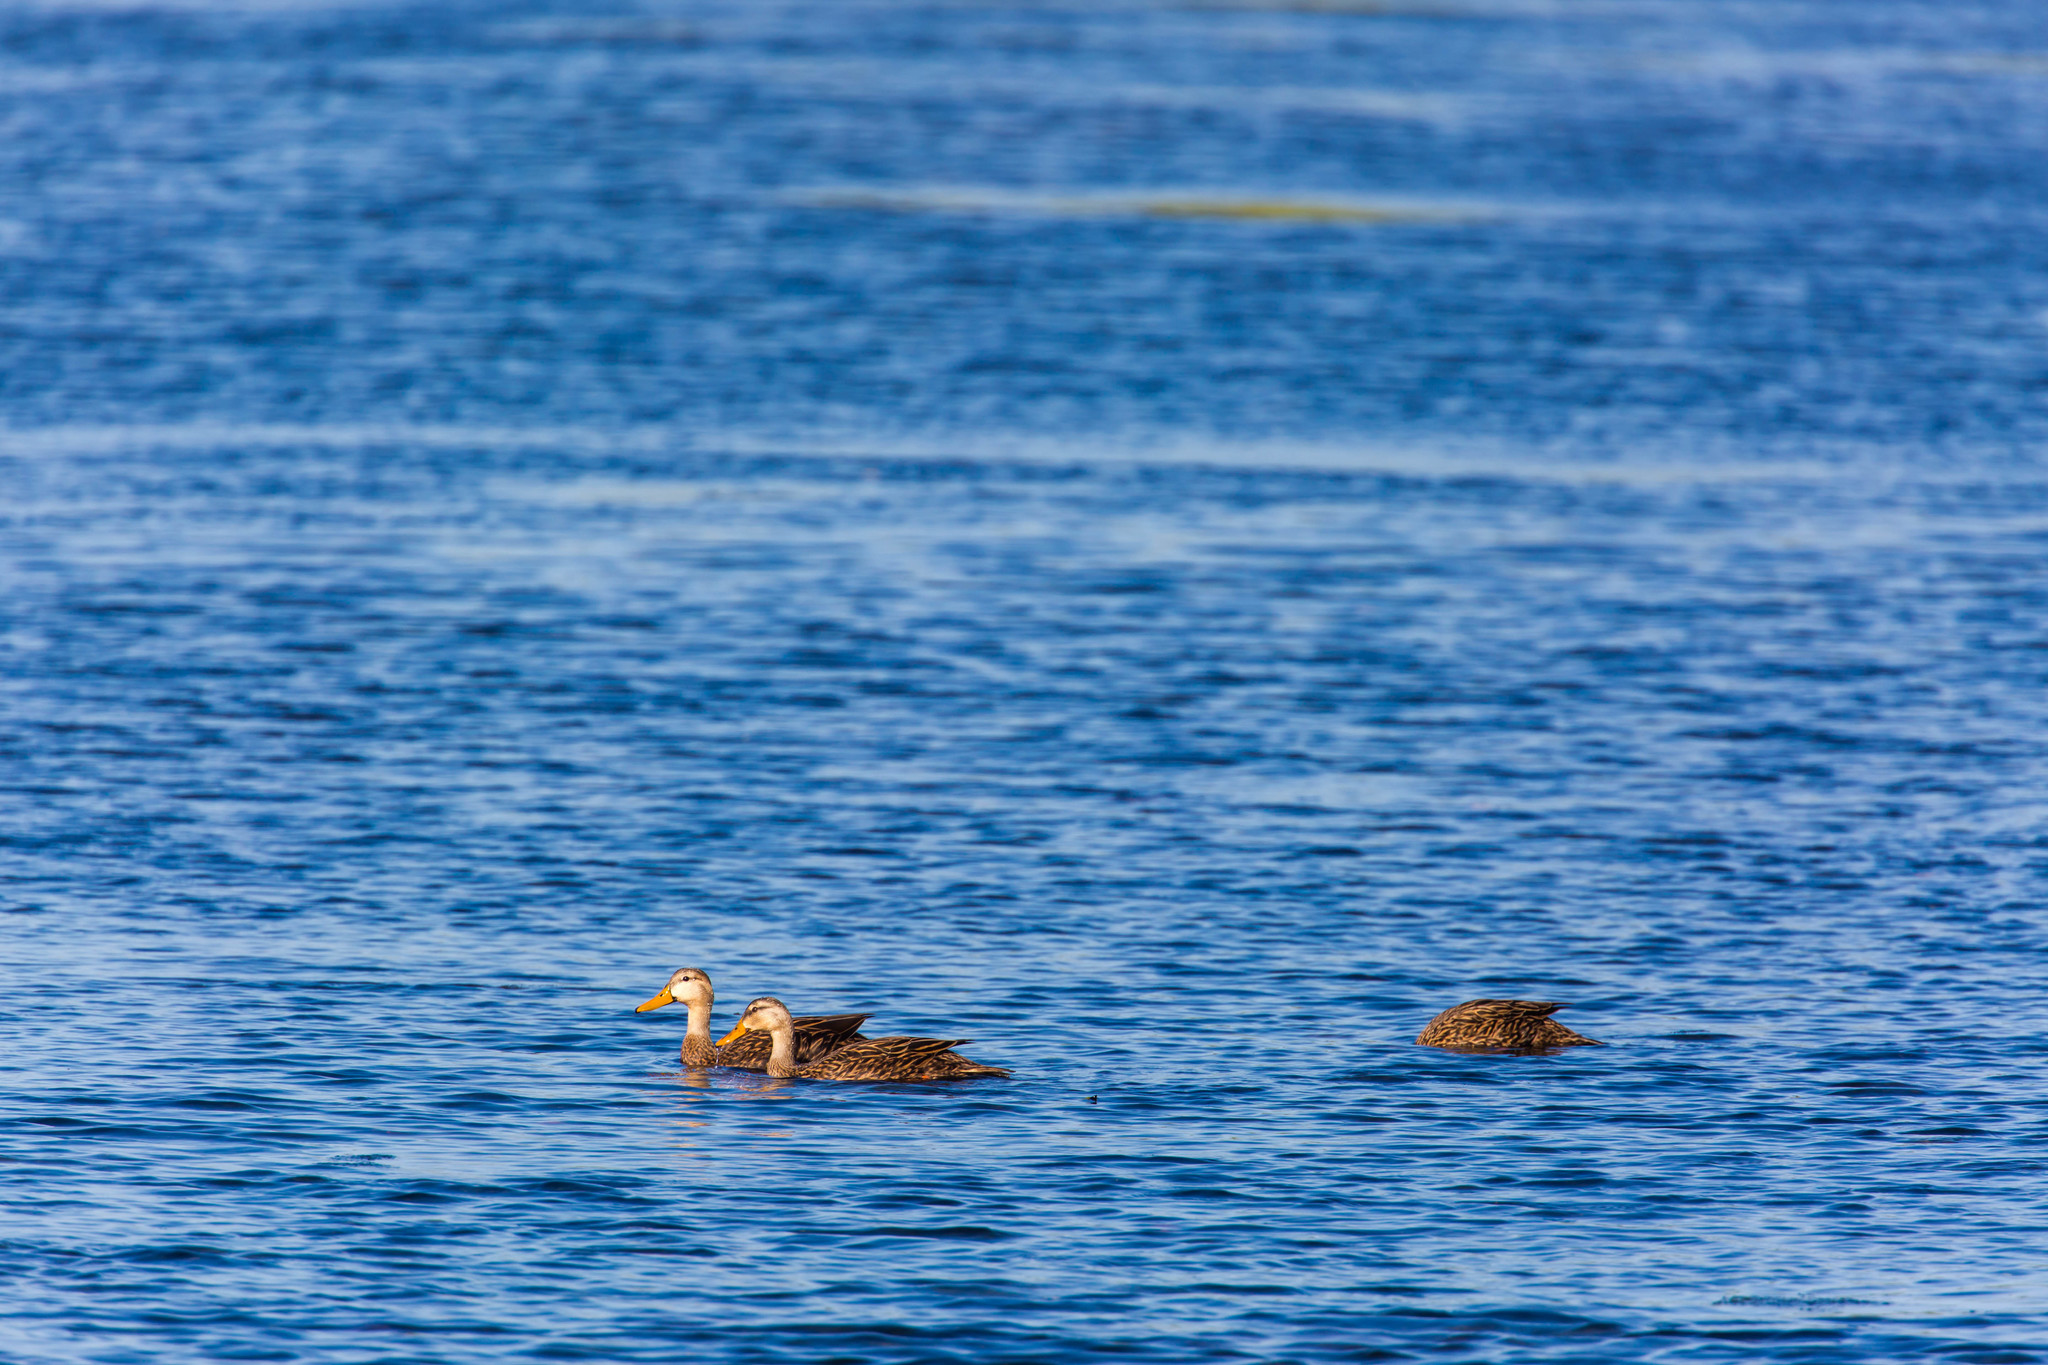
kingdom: Animalia
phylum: Chordata
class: Aves
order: Anseriformes
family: Anatidae
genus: Anas
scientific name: Anas fulvigula
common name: Mottled duck
